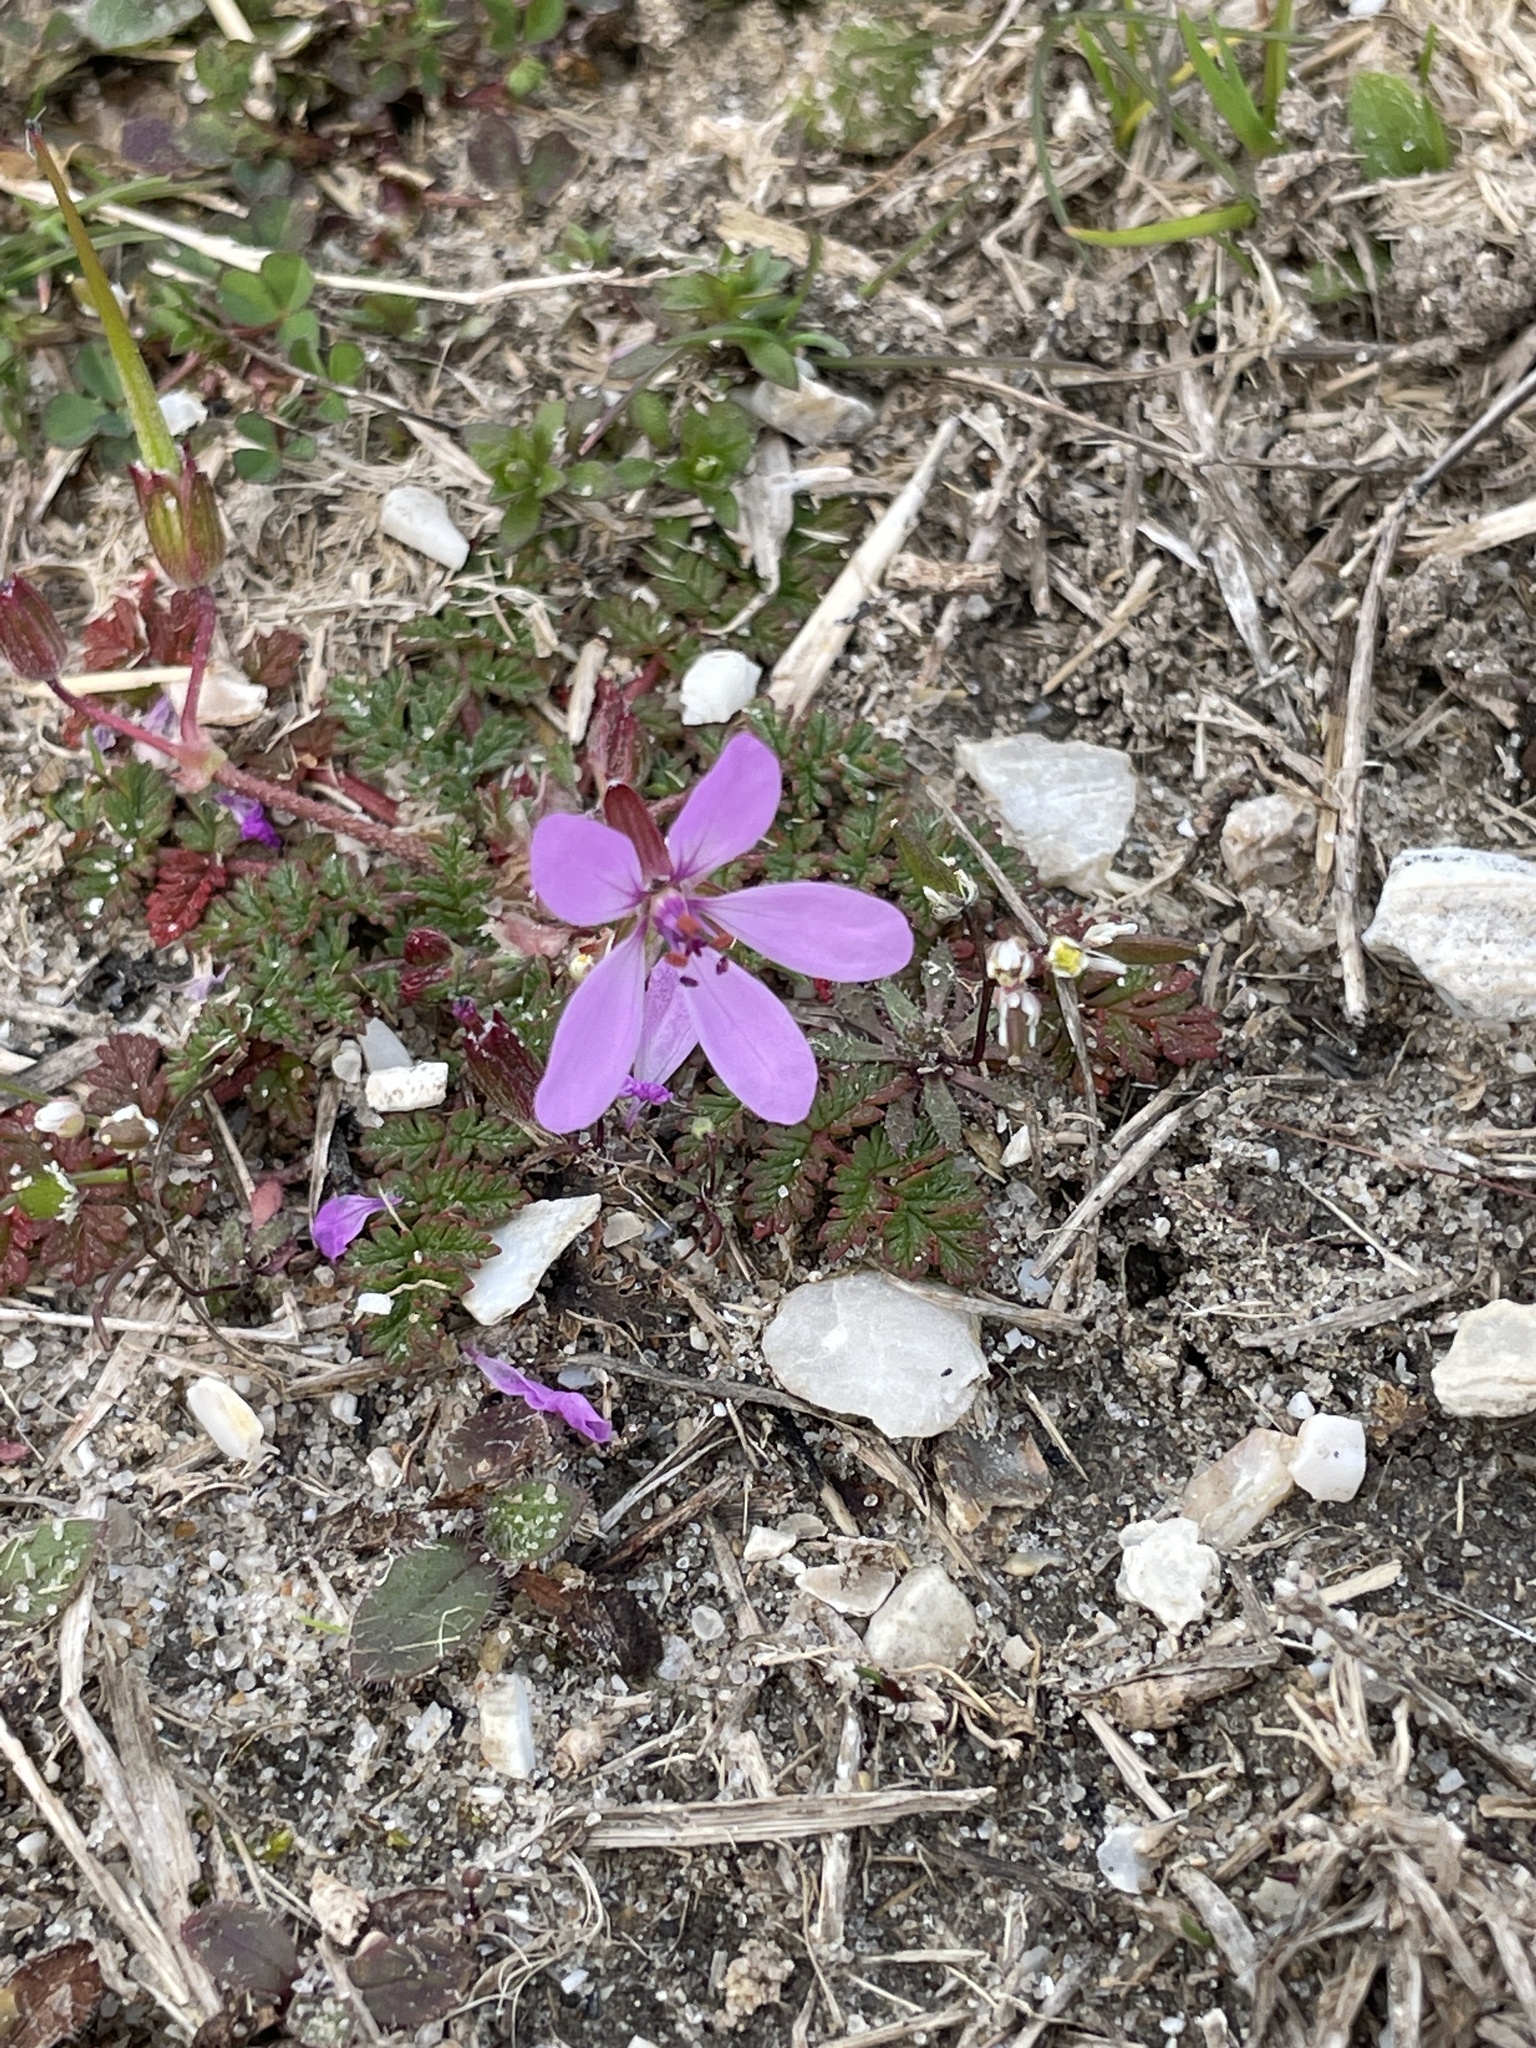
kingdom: Plantae
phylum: Tracheophyta
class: Magnoliopsida
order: Geraniales
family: Geraniaceae
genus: Erodium
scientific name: Erodium cicutarium
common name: Common stork's-bill
